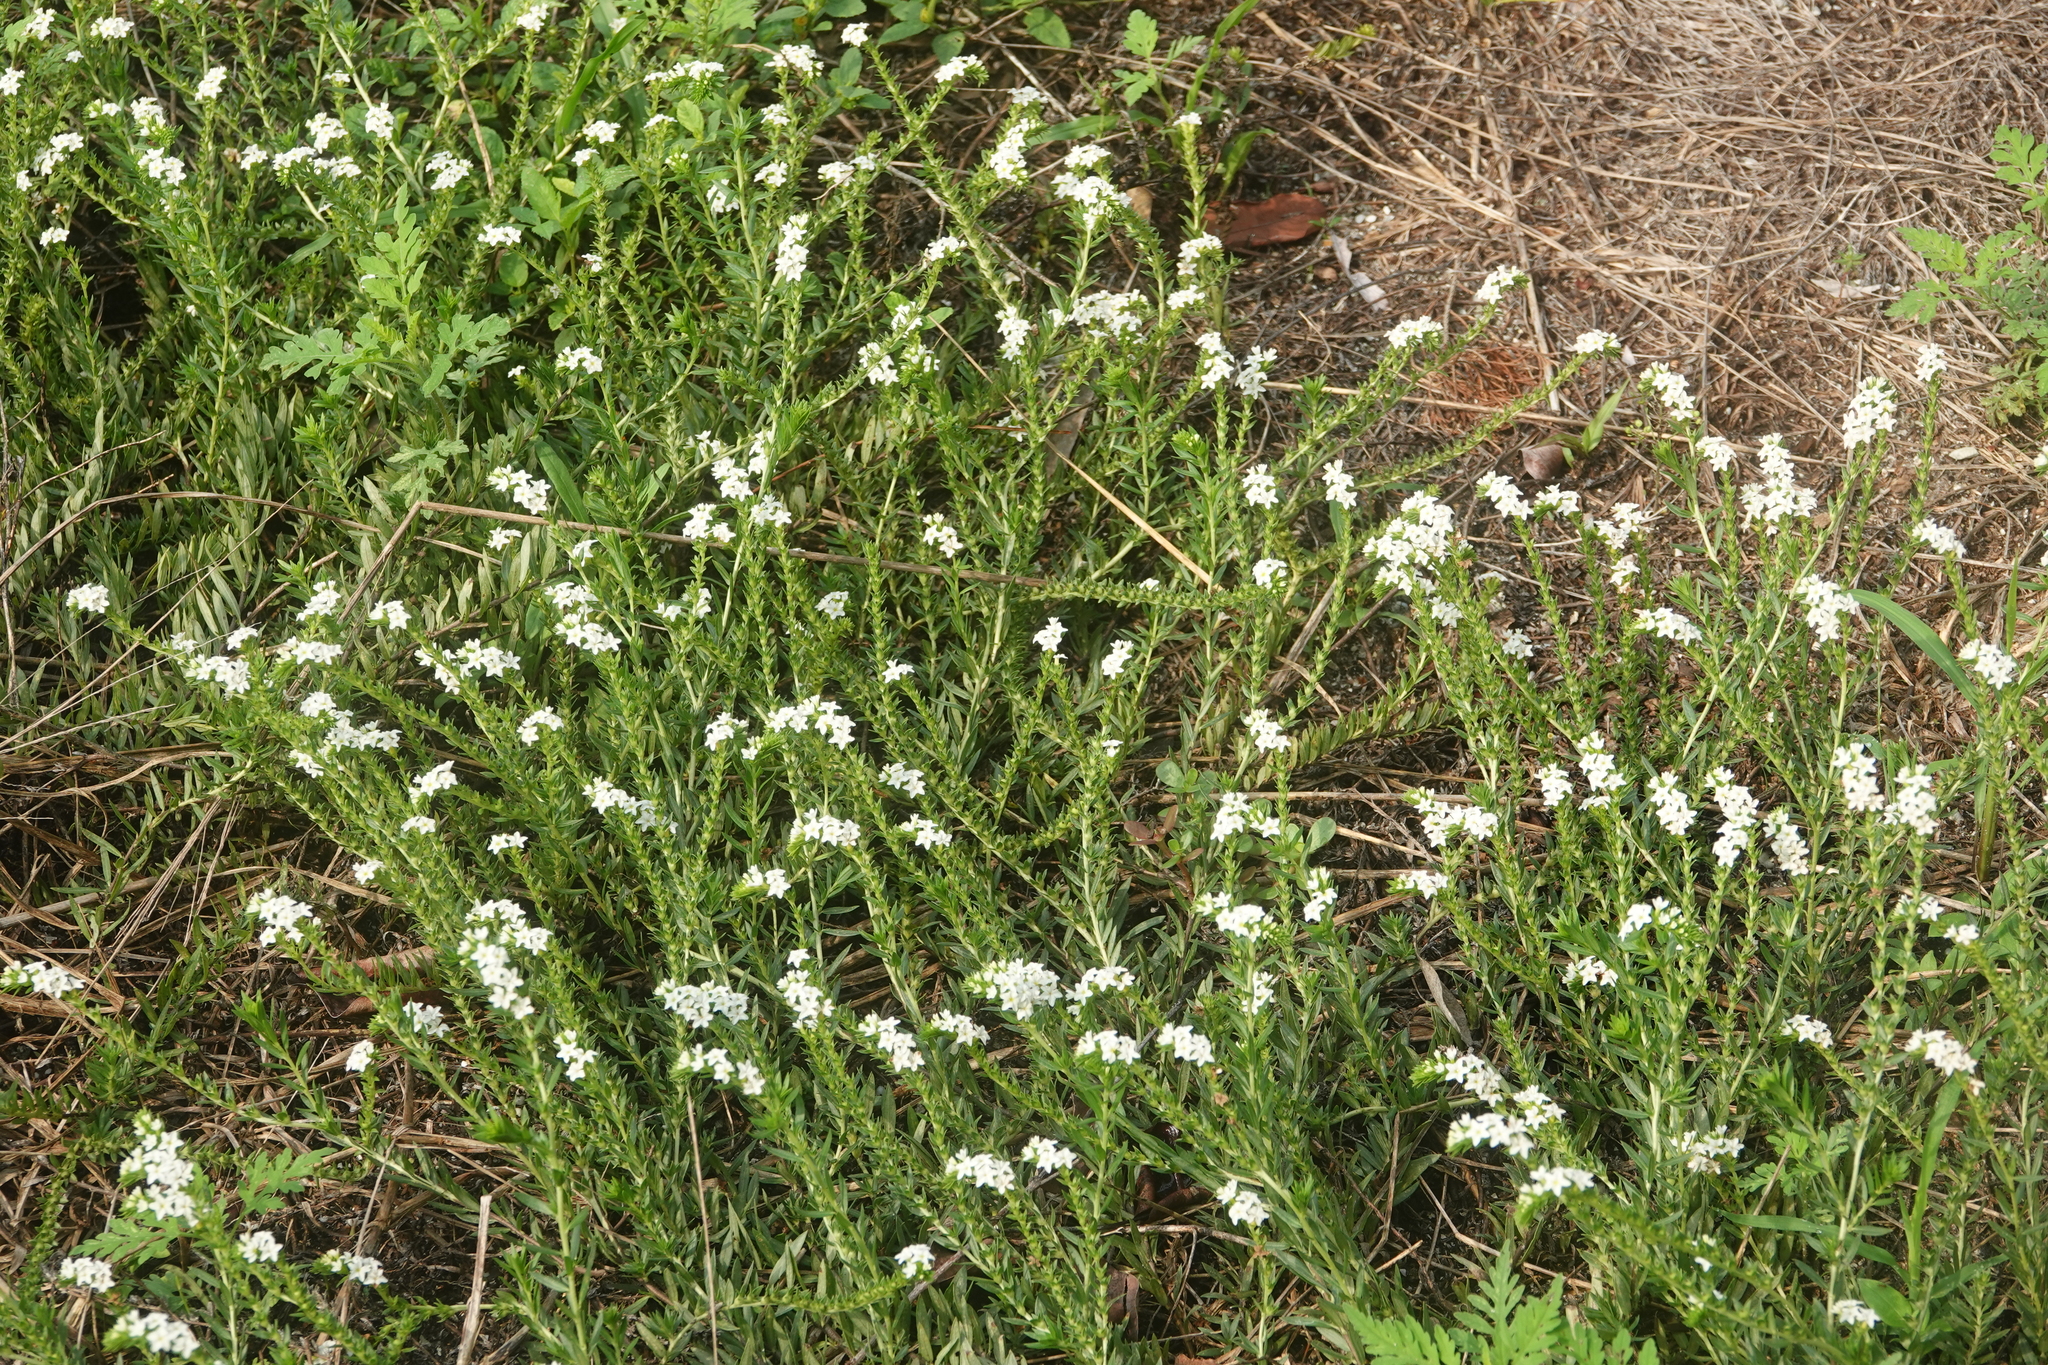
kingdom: Plantae
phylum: Tracheophyta
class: Magnoliopsida
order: Boraginales
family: Heliotropiaceae
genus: Euploca
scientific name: Euploca polyphylla
